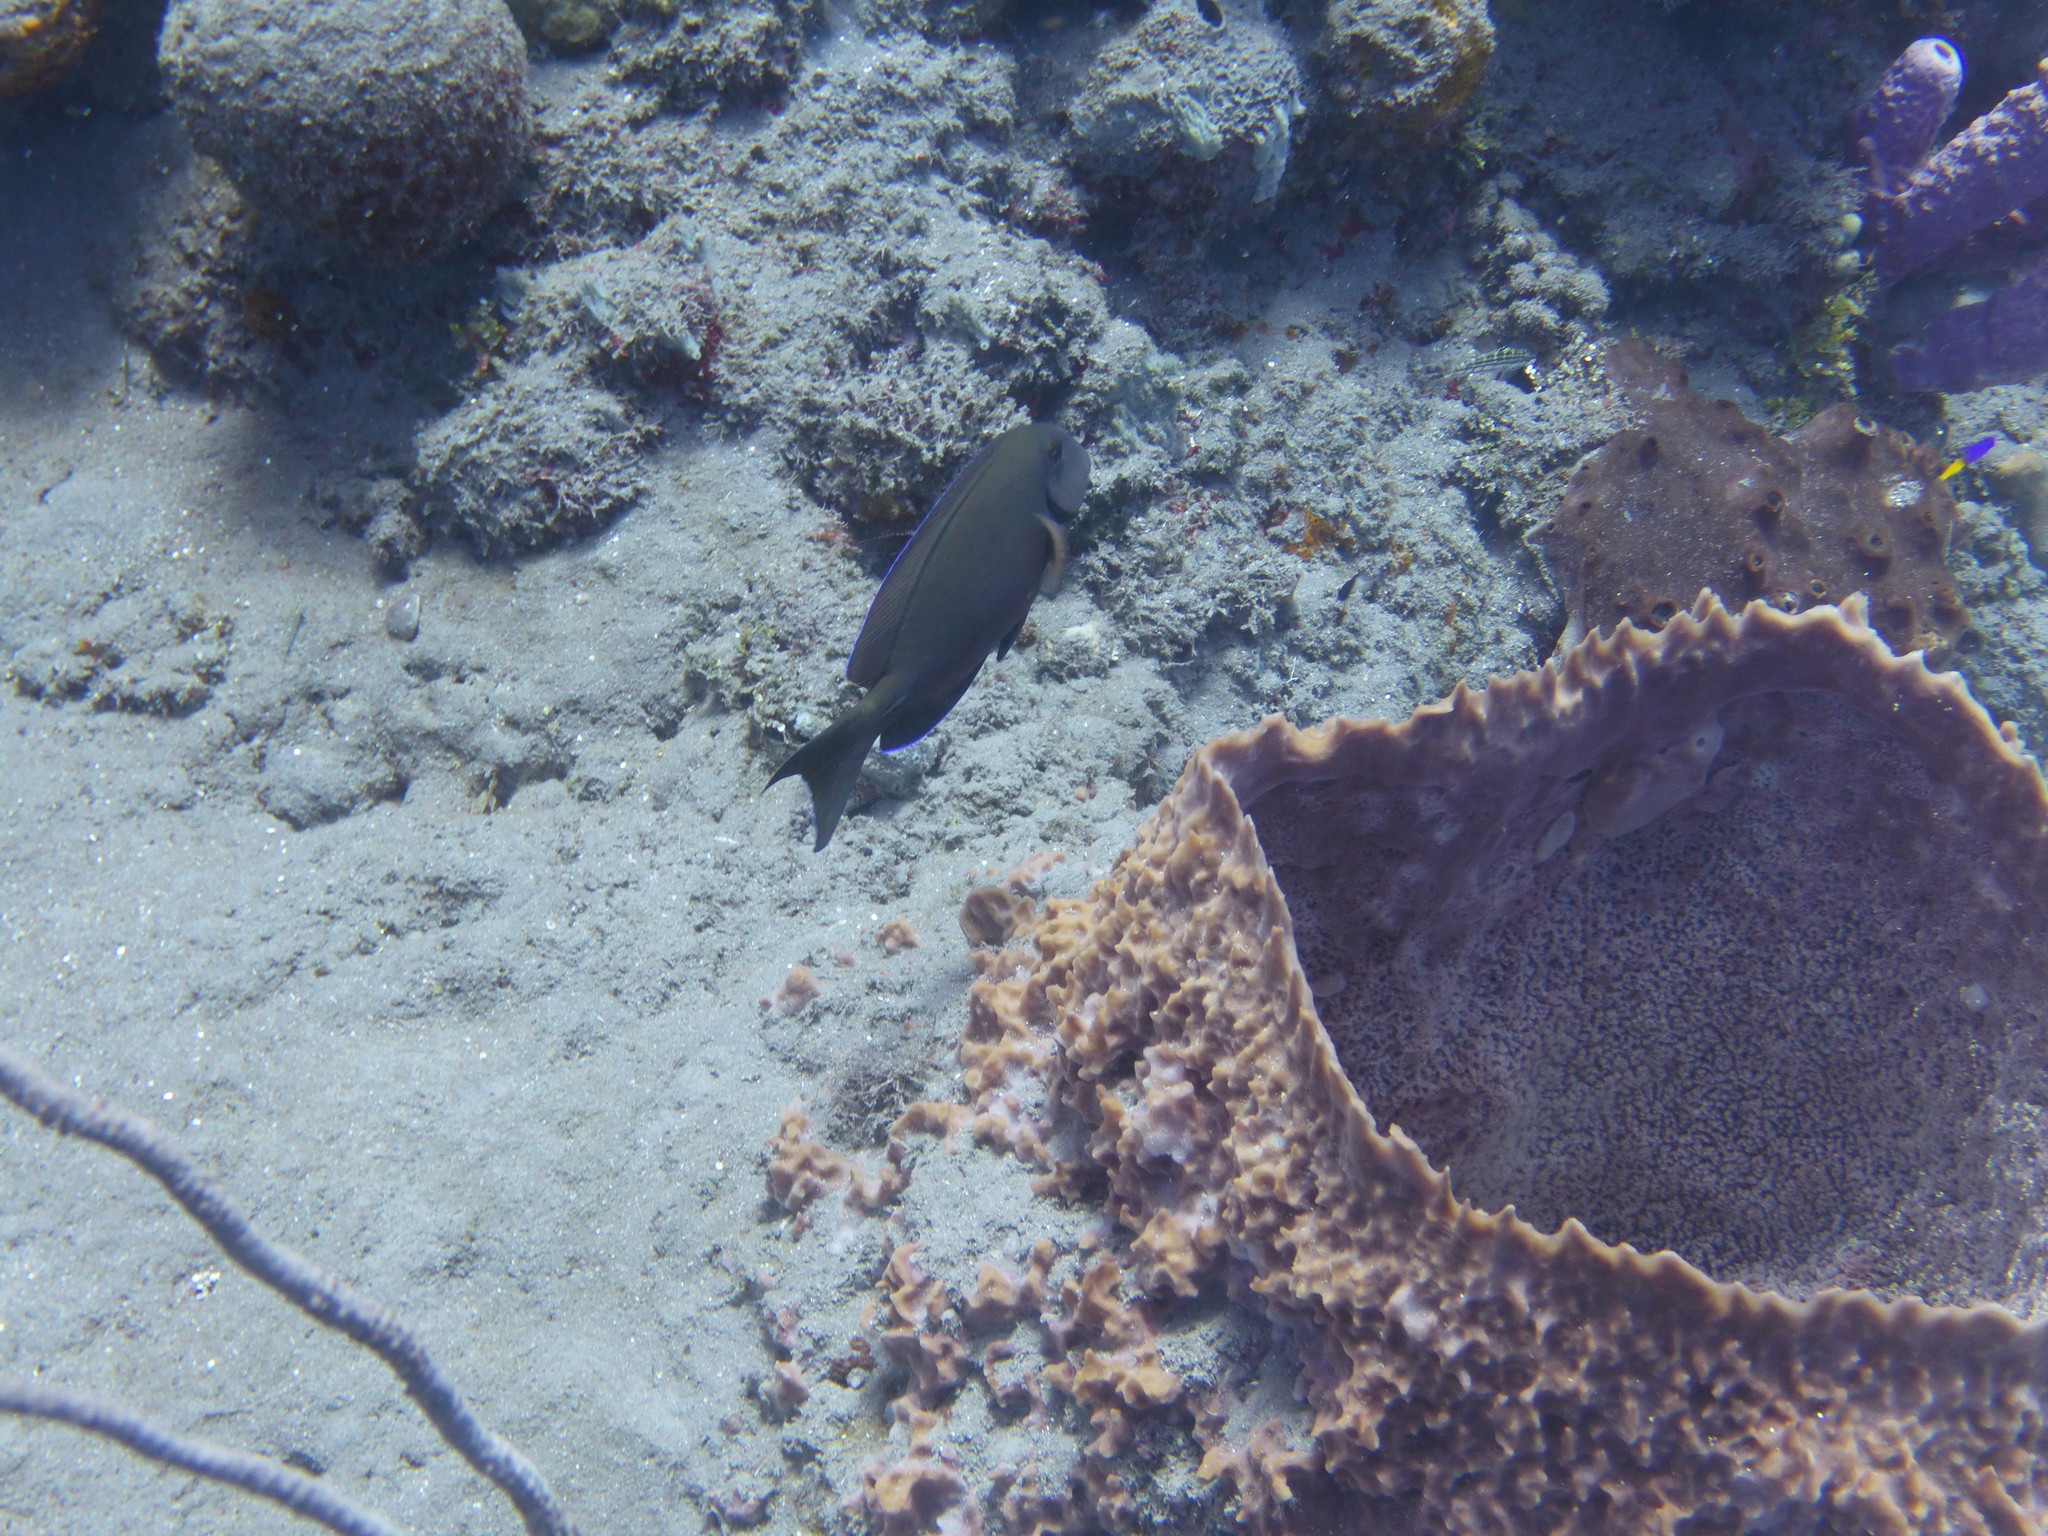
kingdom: Animalia
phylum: Chordata
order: Perciformes
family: Acanthuridae
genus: Acanthurus
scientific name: Acanthurus bahianus
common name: Ocean surgeon
